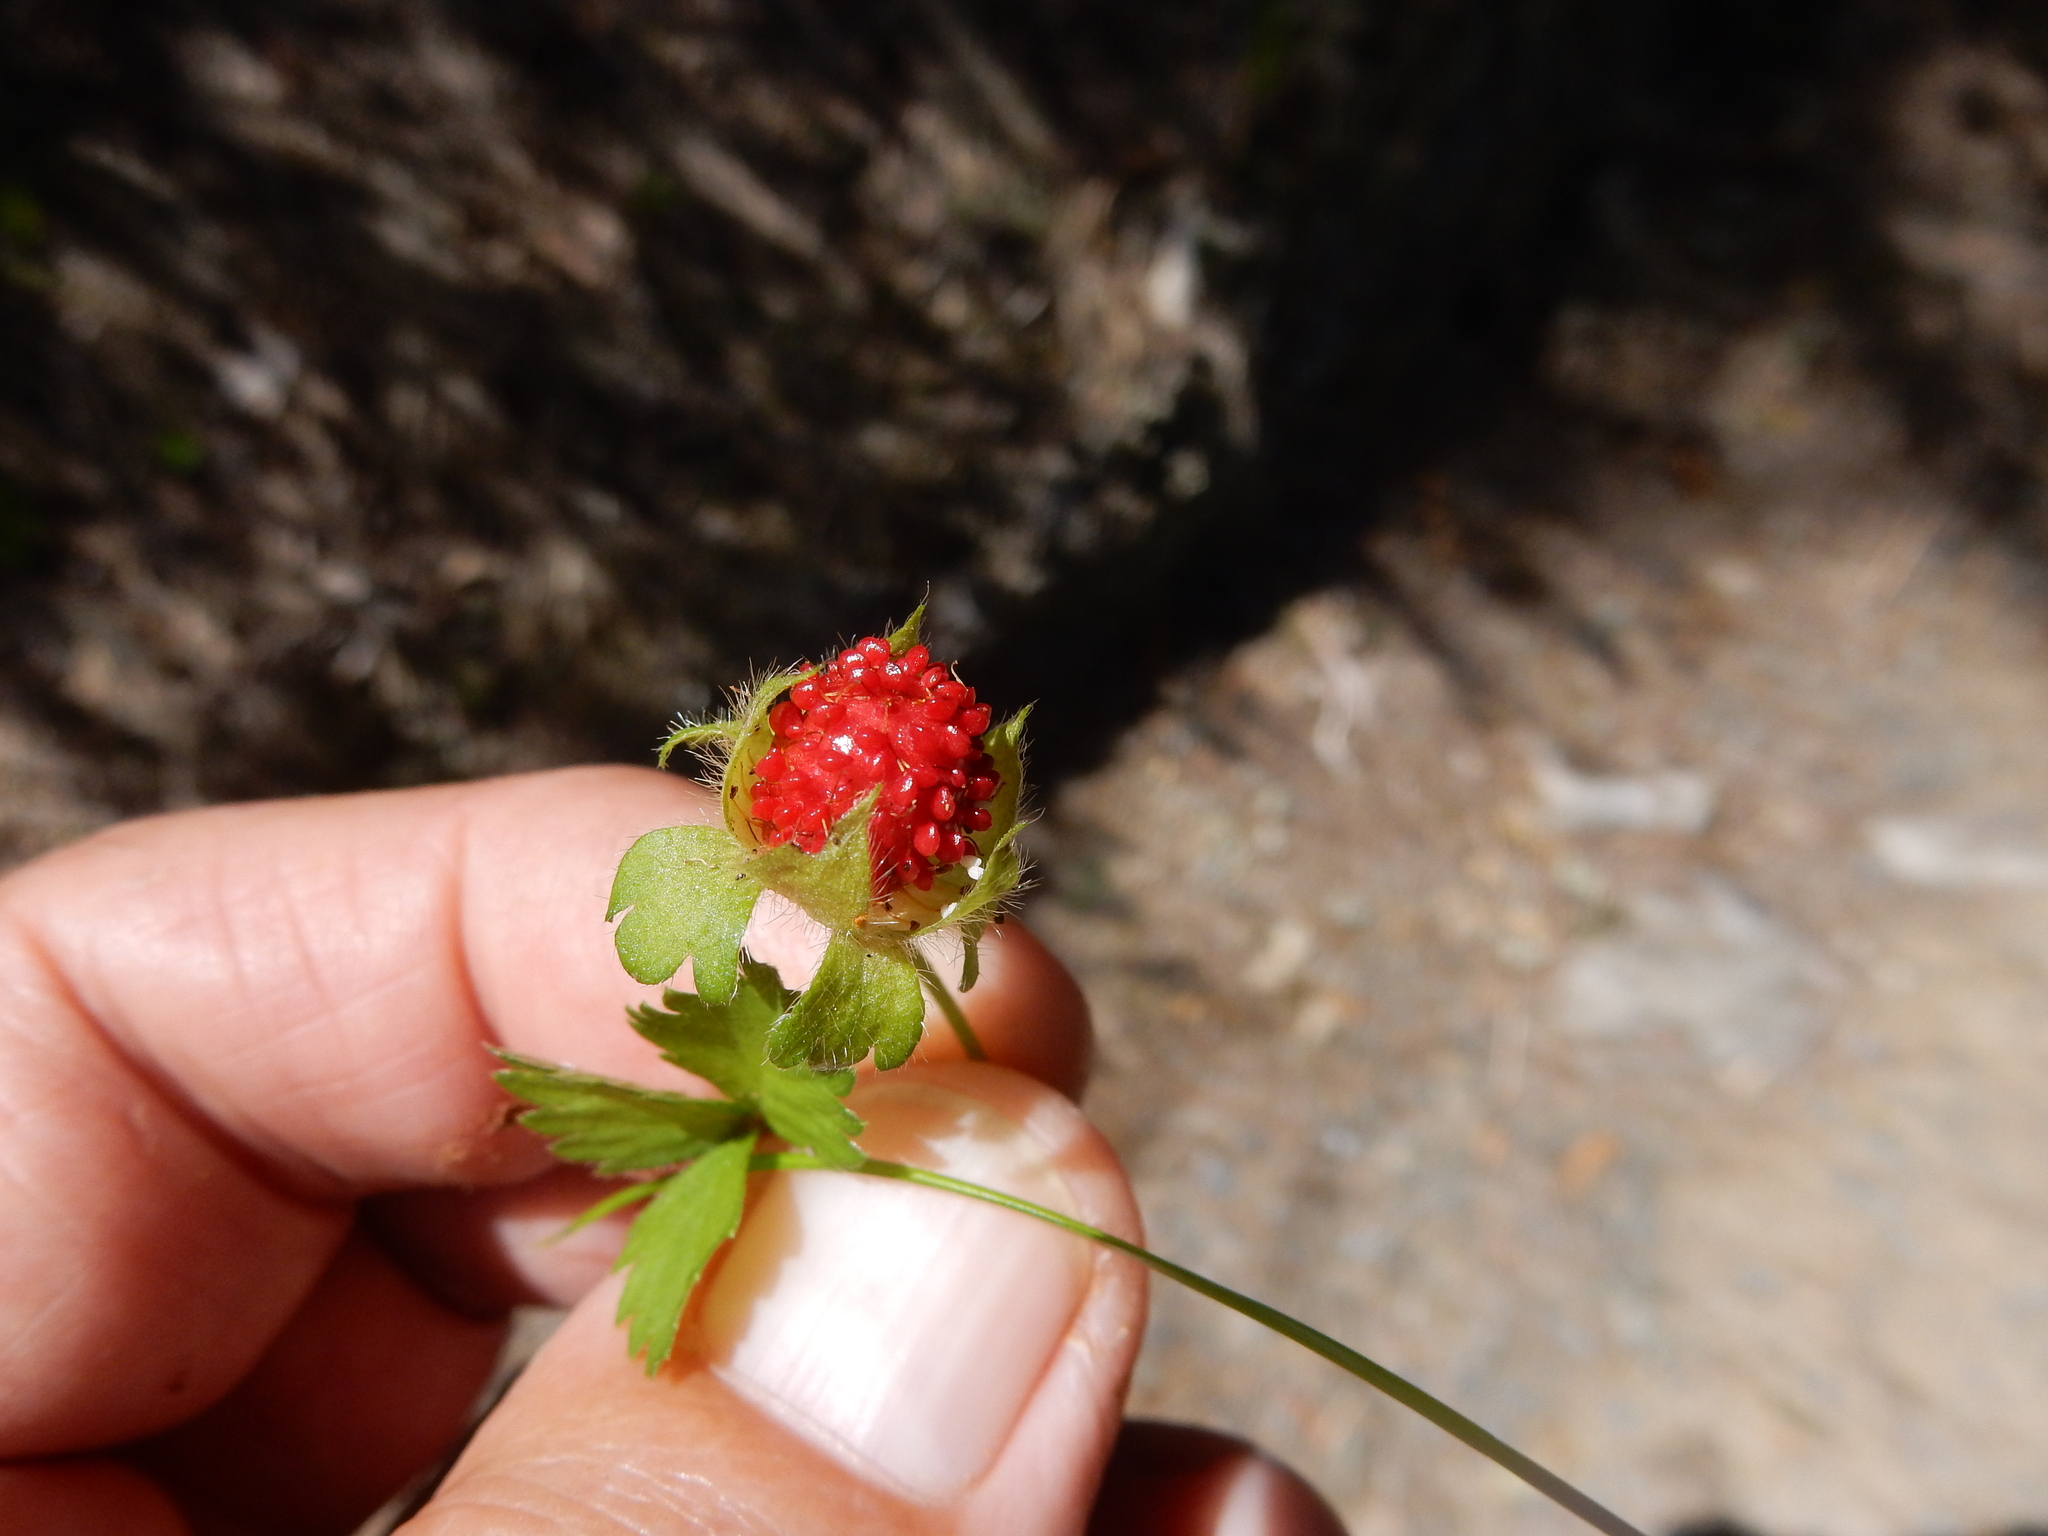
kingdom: Plantae
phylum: Tracheophyta
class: Magnoliopsida
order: Rosales
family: Rosaceae
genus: Potentilla
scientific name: Potentilla indica
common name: Yellow-flowered strawberry
